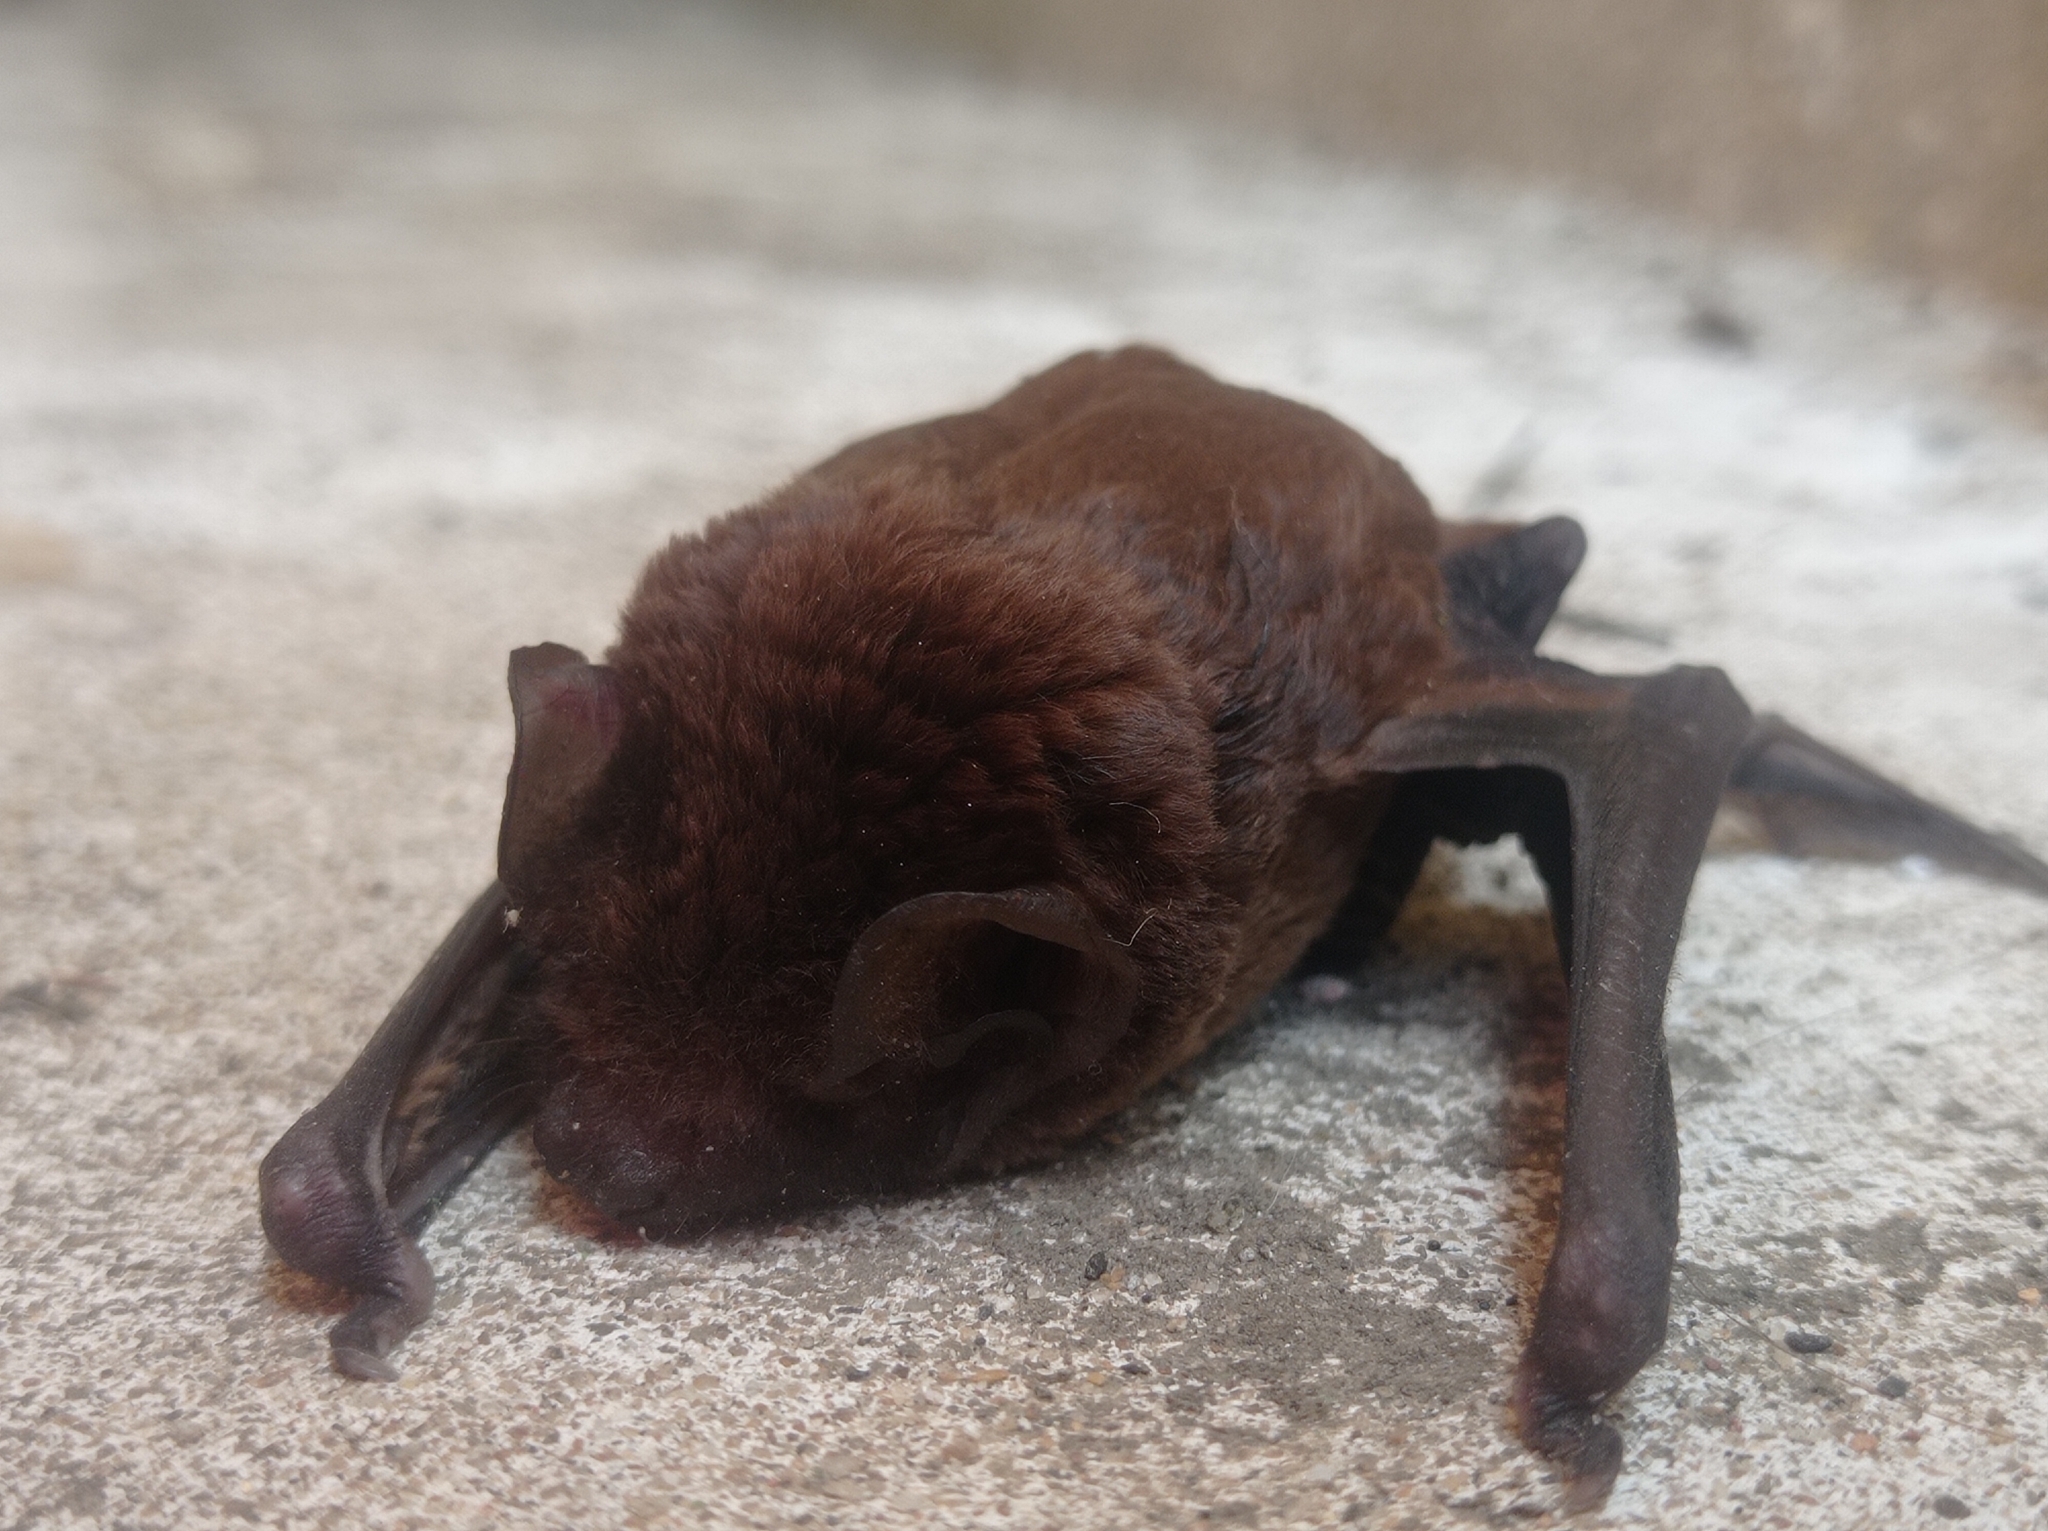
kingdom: Animalia
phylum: Chordata
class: Mammalia
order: Chiroptera
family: Vespertilionidae
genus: Nyctalus
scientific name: Nyctalus plancyi
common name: Chinese noctule
